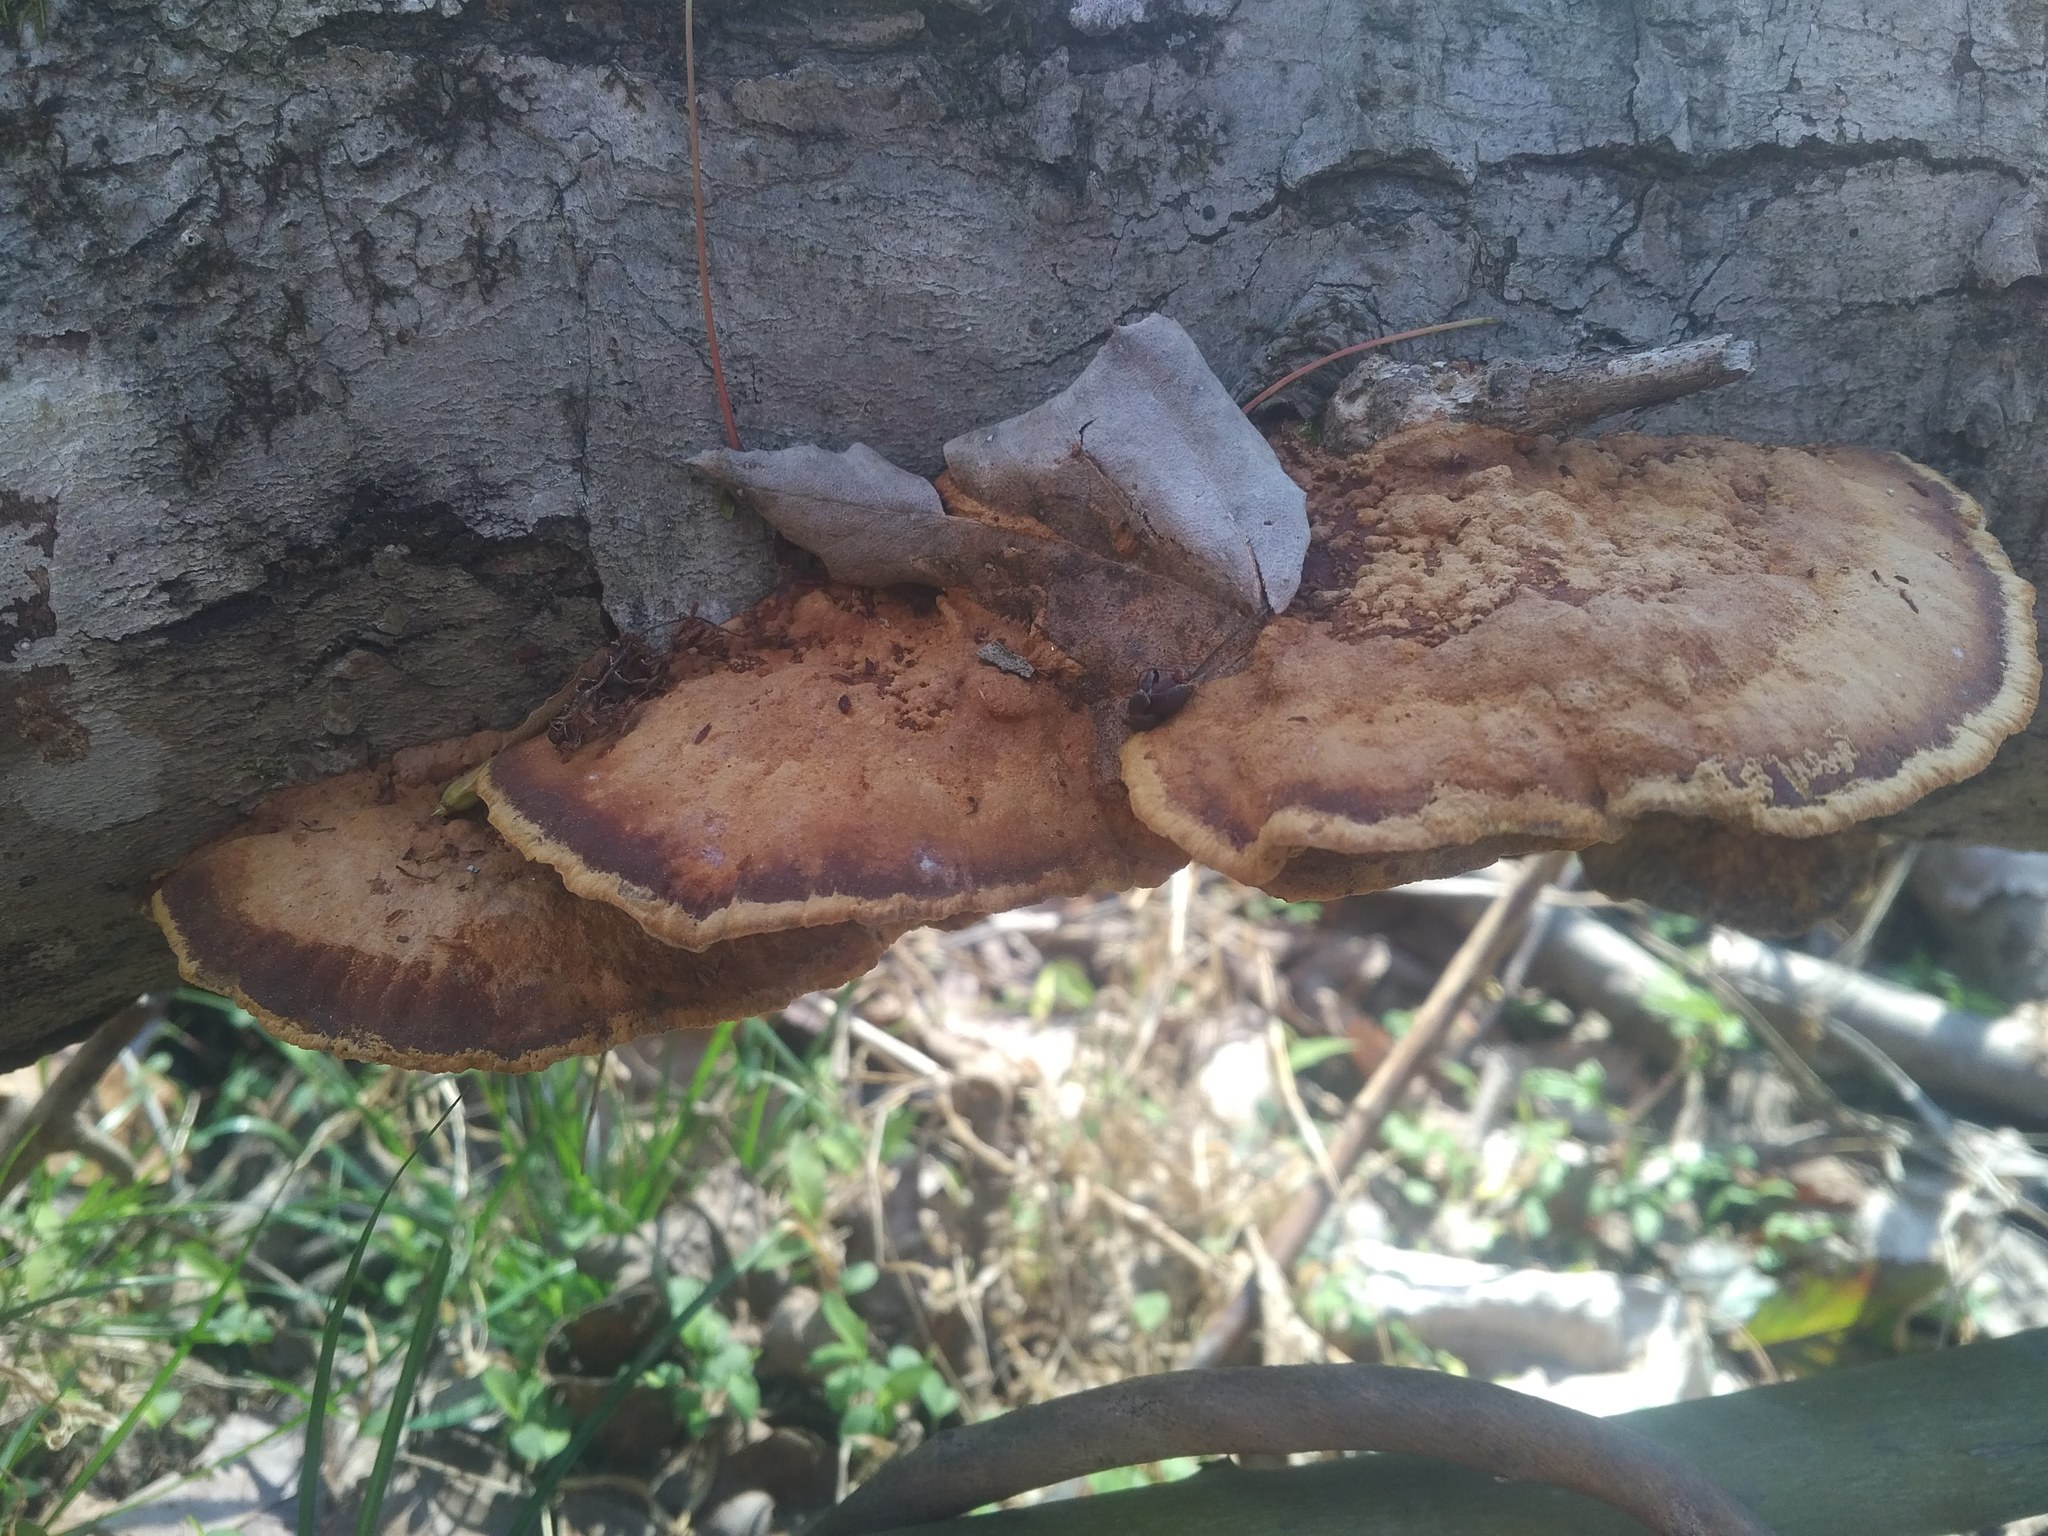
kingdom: Fungi
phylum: Basidiomycota
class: Agaricomycetes
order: Hymenochaetales
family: Hymenochaetaceae
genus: Phellinus
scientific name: Phellinus gilvus
